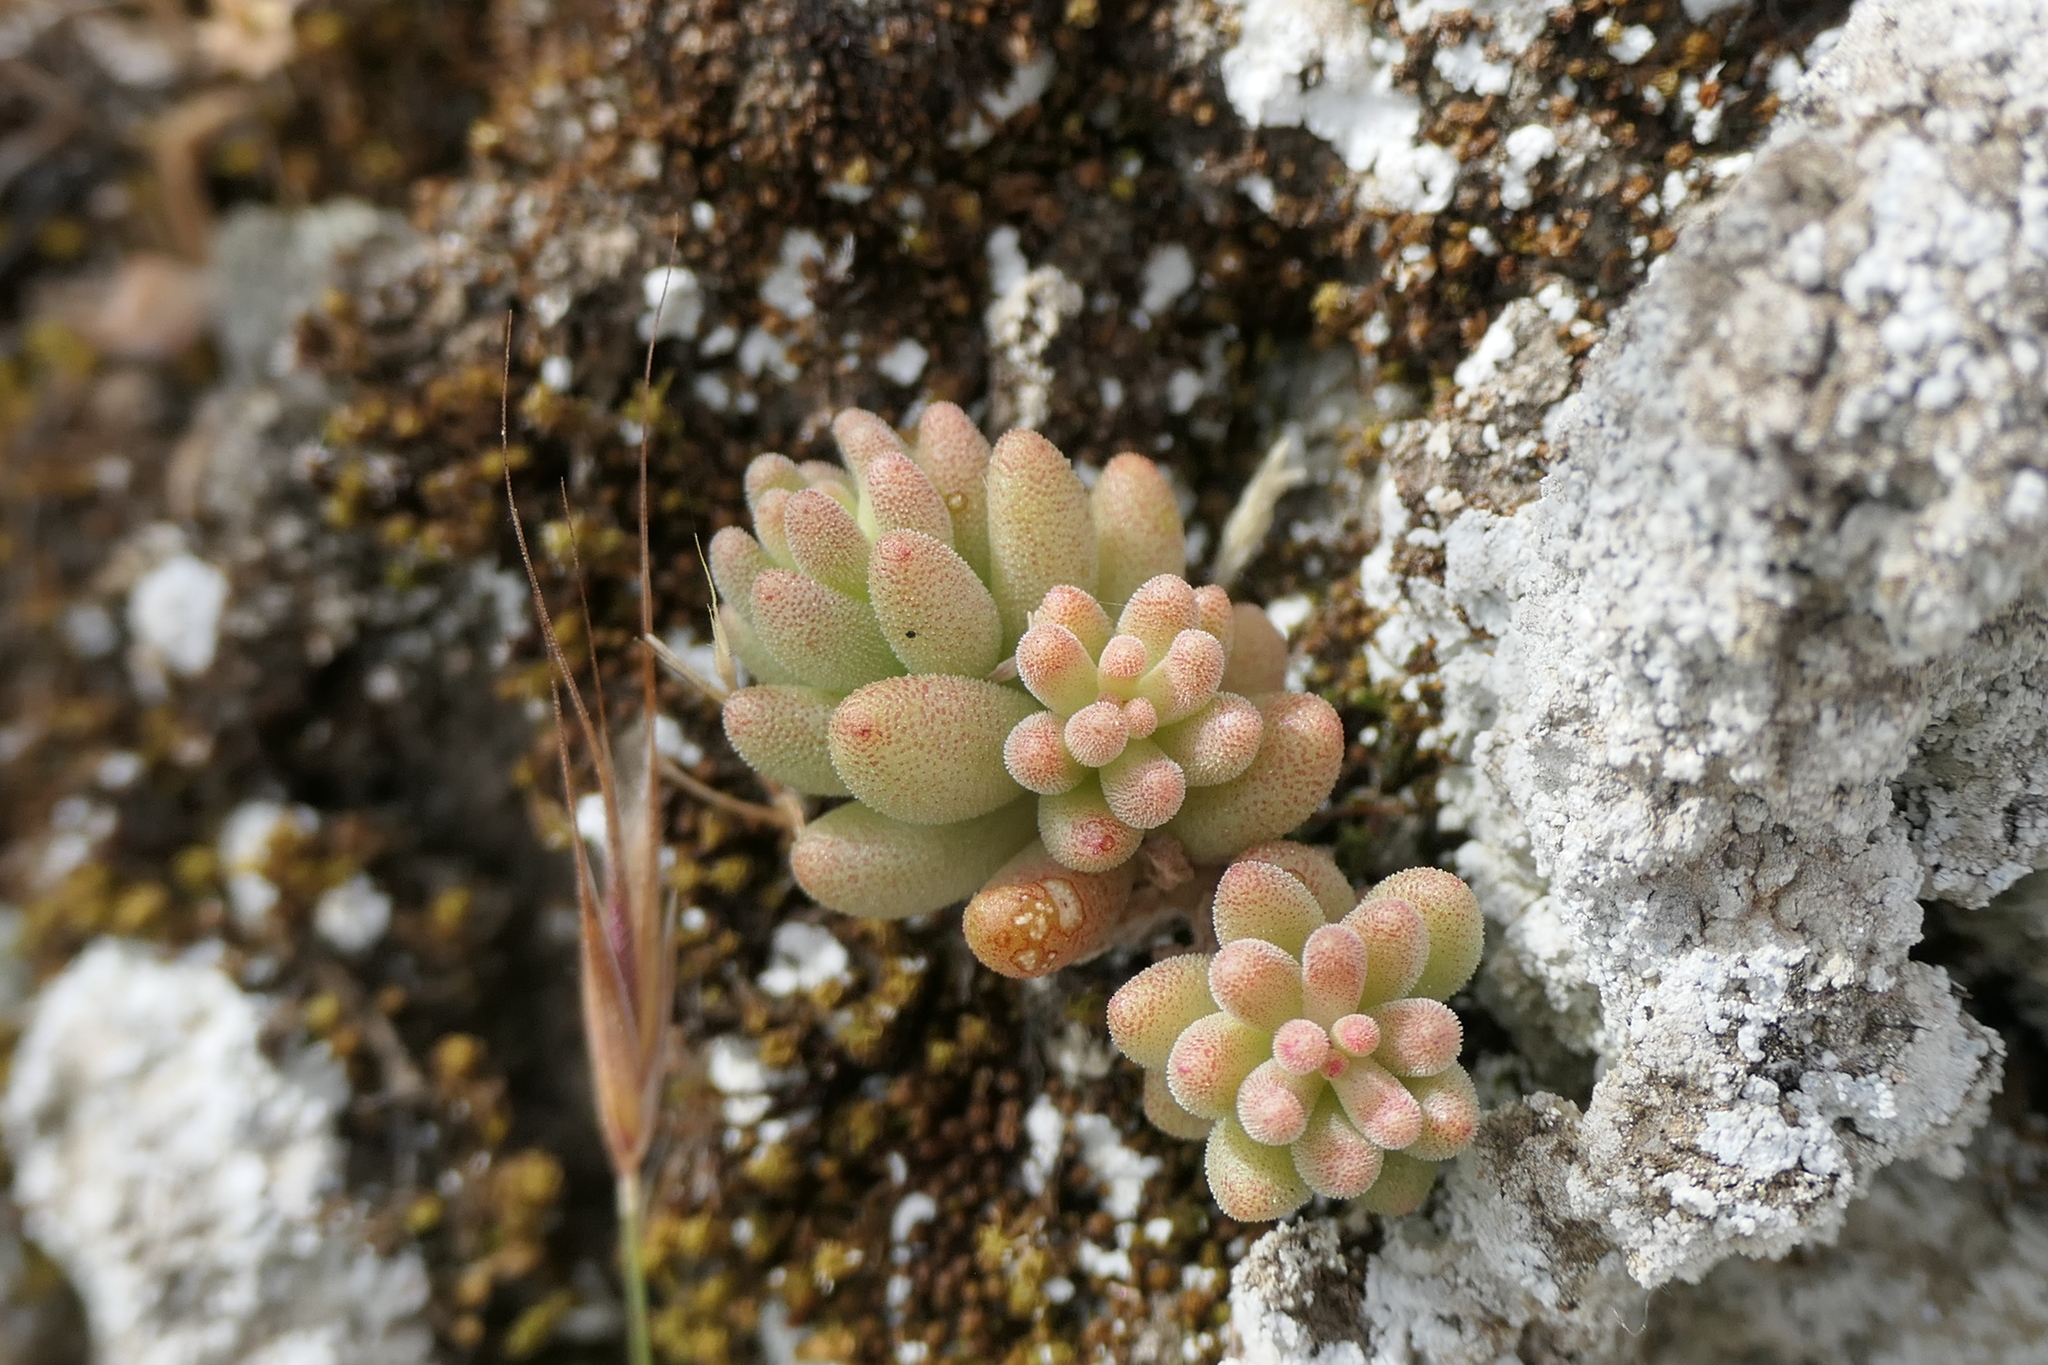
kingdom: Plantae
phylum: Tracheophyta
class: Magnoliopsida
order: Saxifragales
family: Crassulaceae
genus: Sedum
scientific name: Sedum gypsicola
